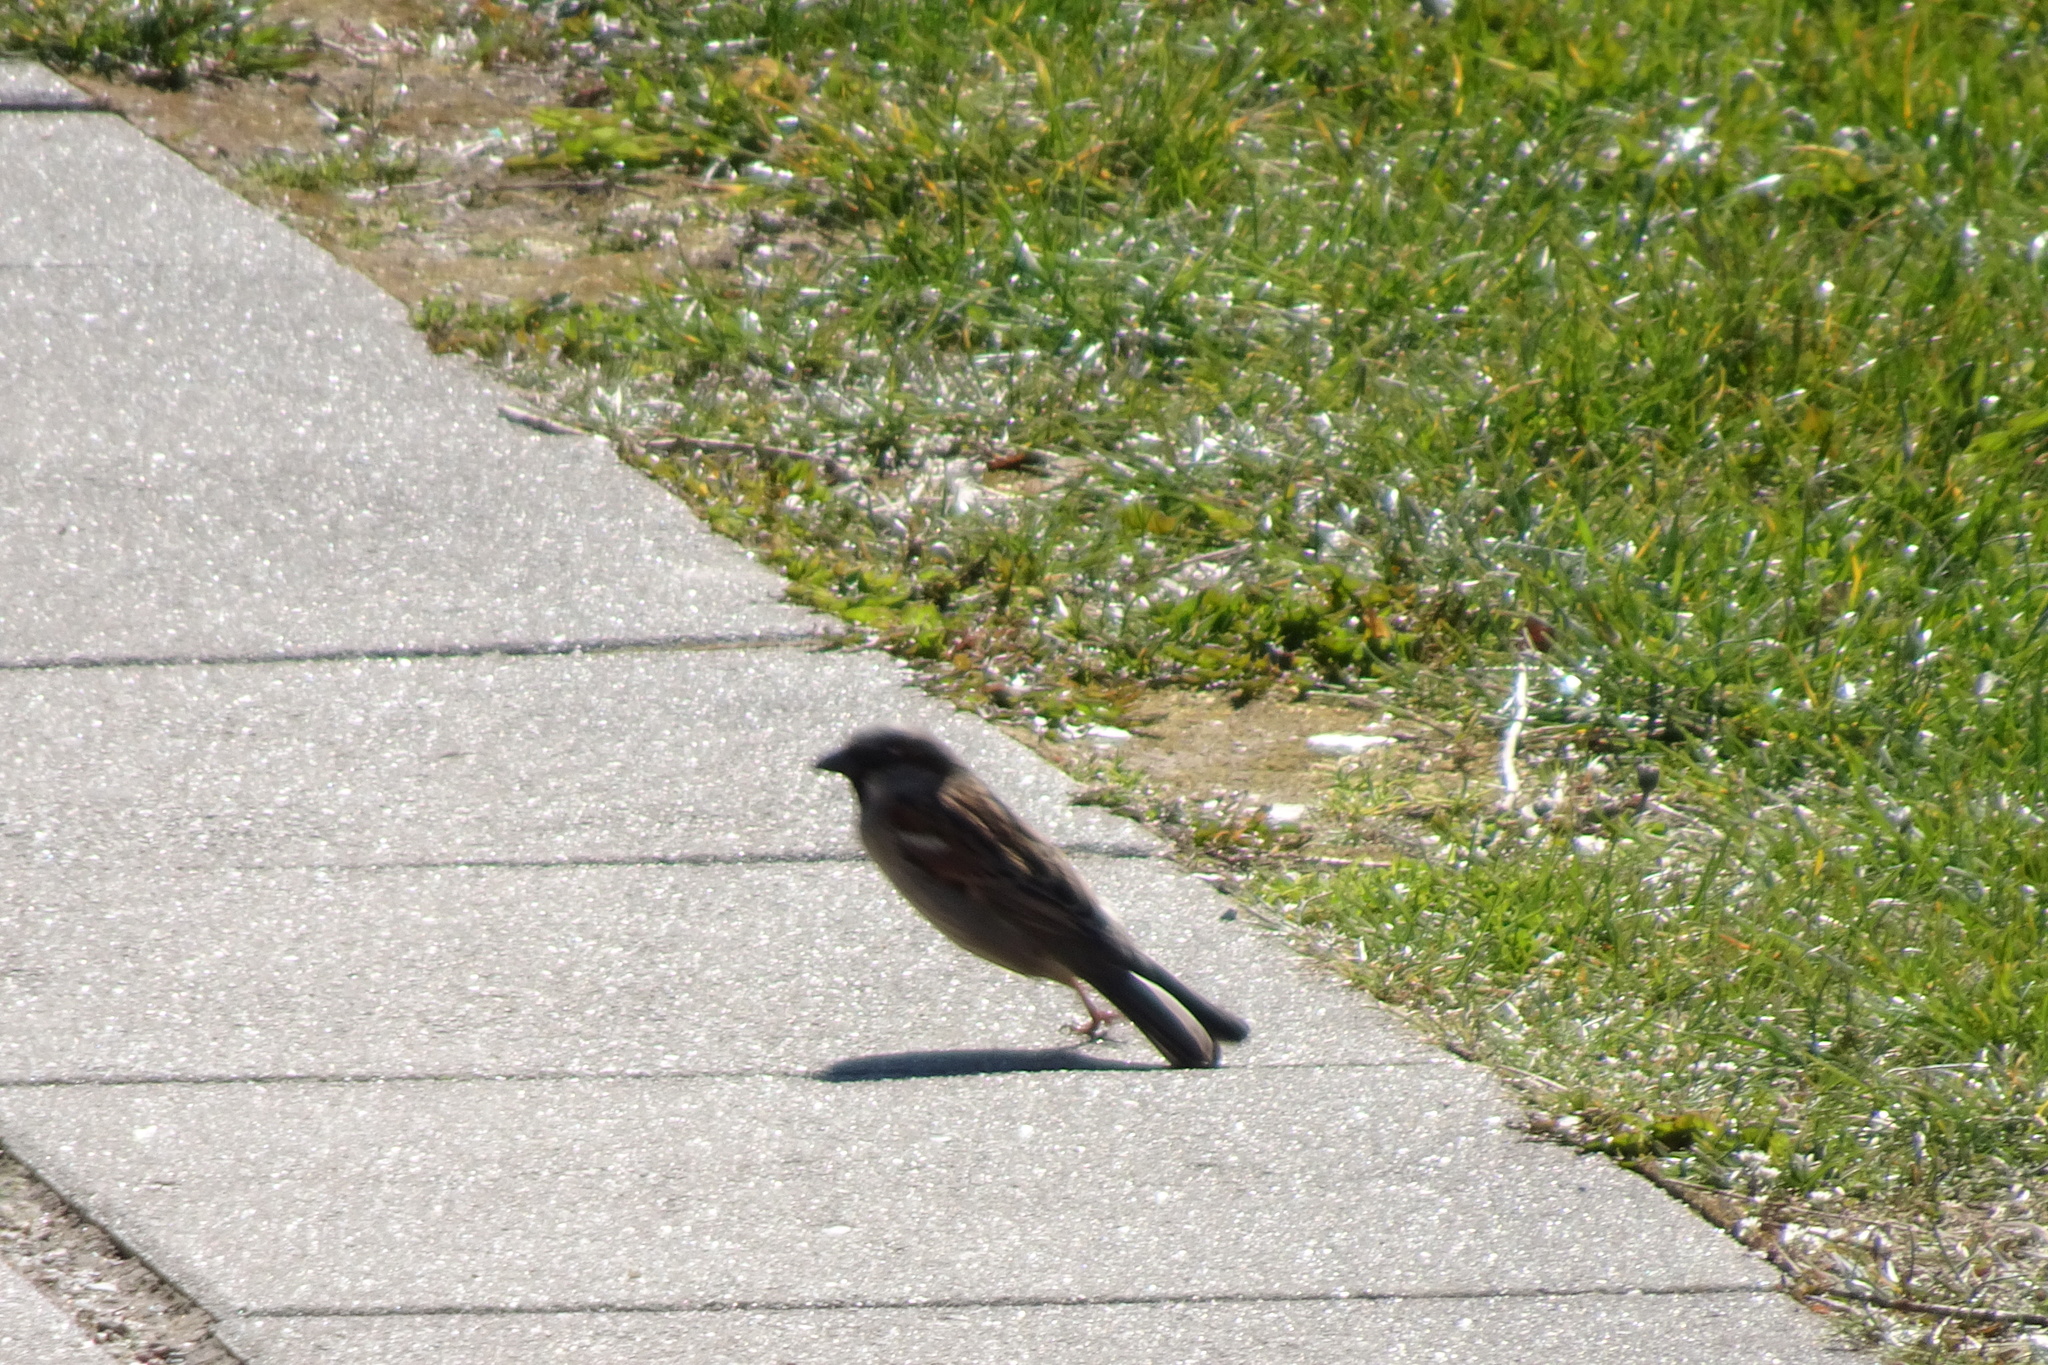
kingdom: Animalia
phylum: Chordata
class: Aves
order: Passeriformes
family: Passeridae
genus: Passer
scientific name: Passer domesticus
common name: House sparrow
